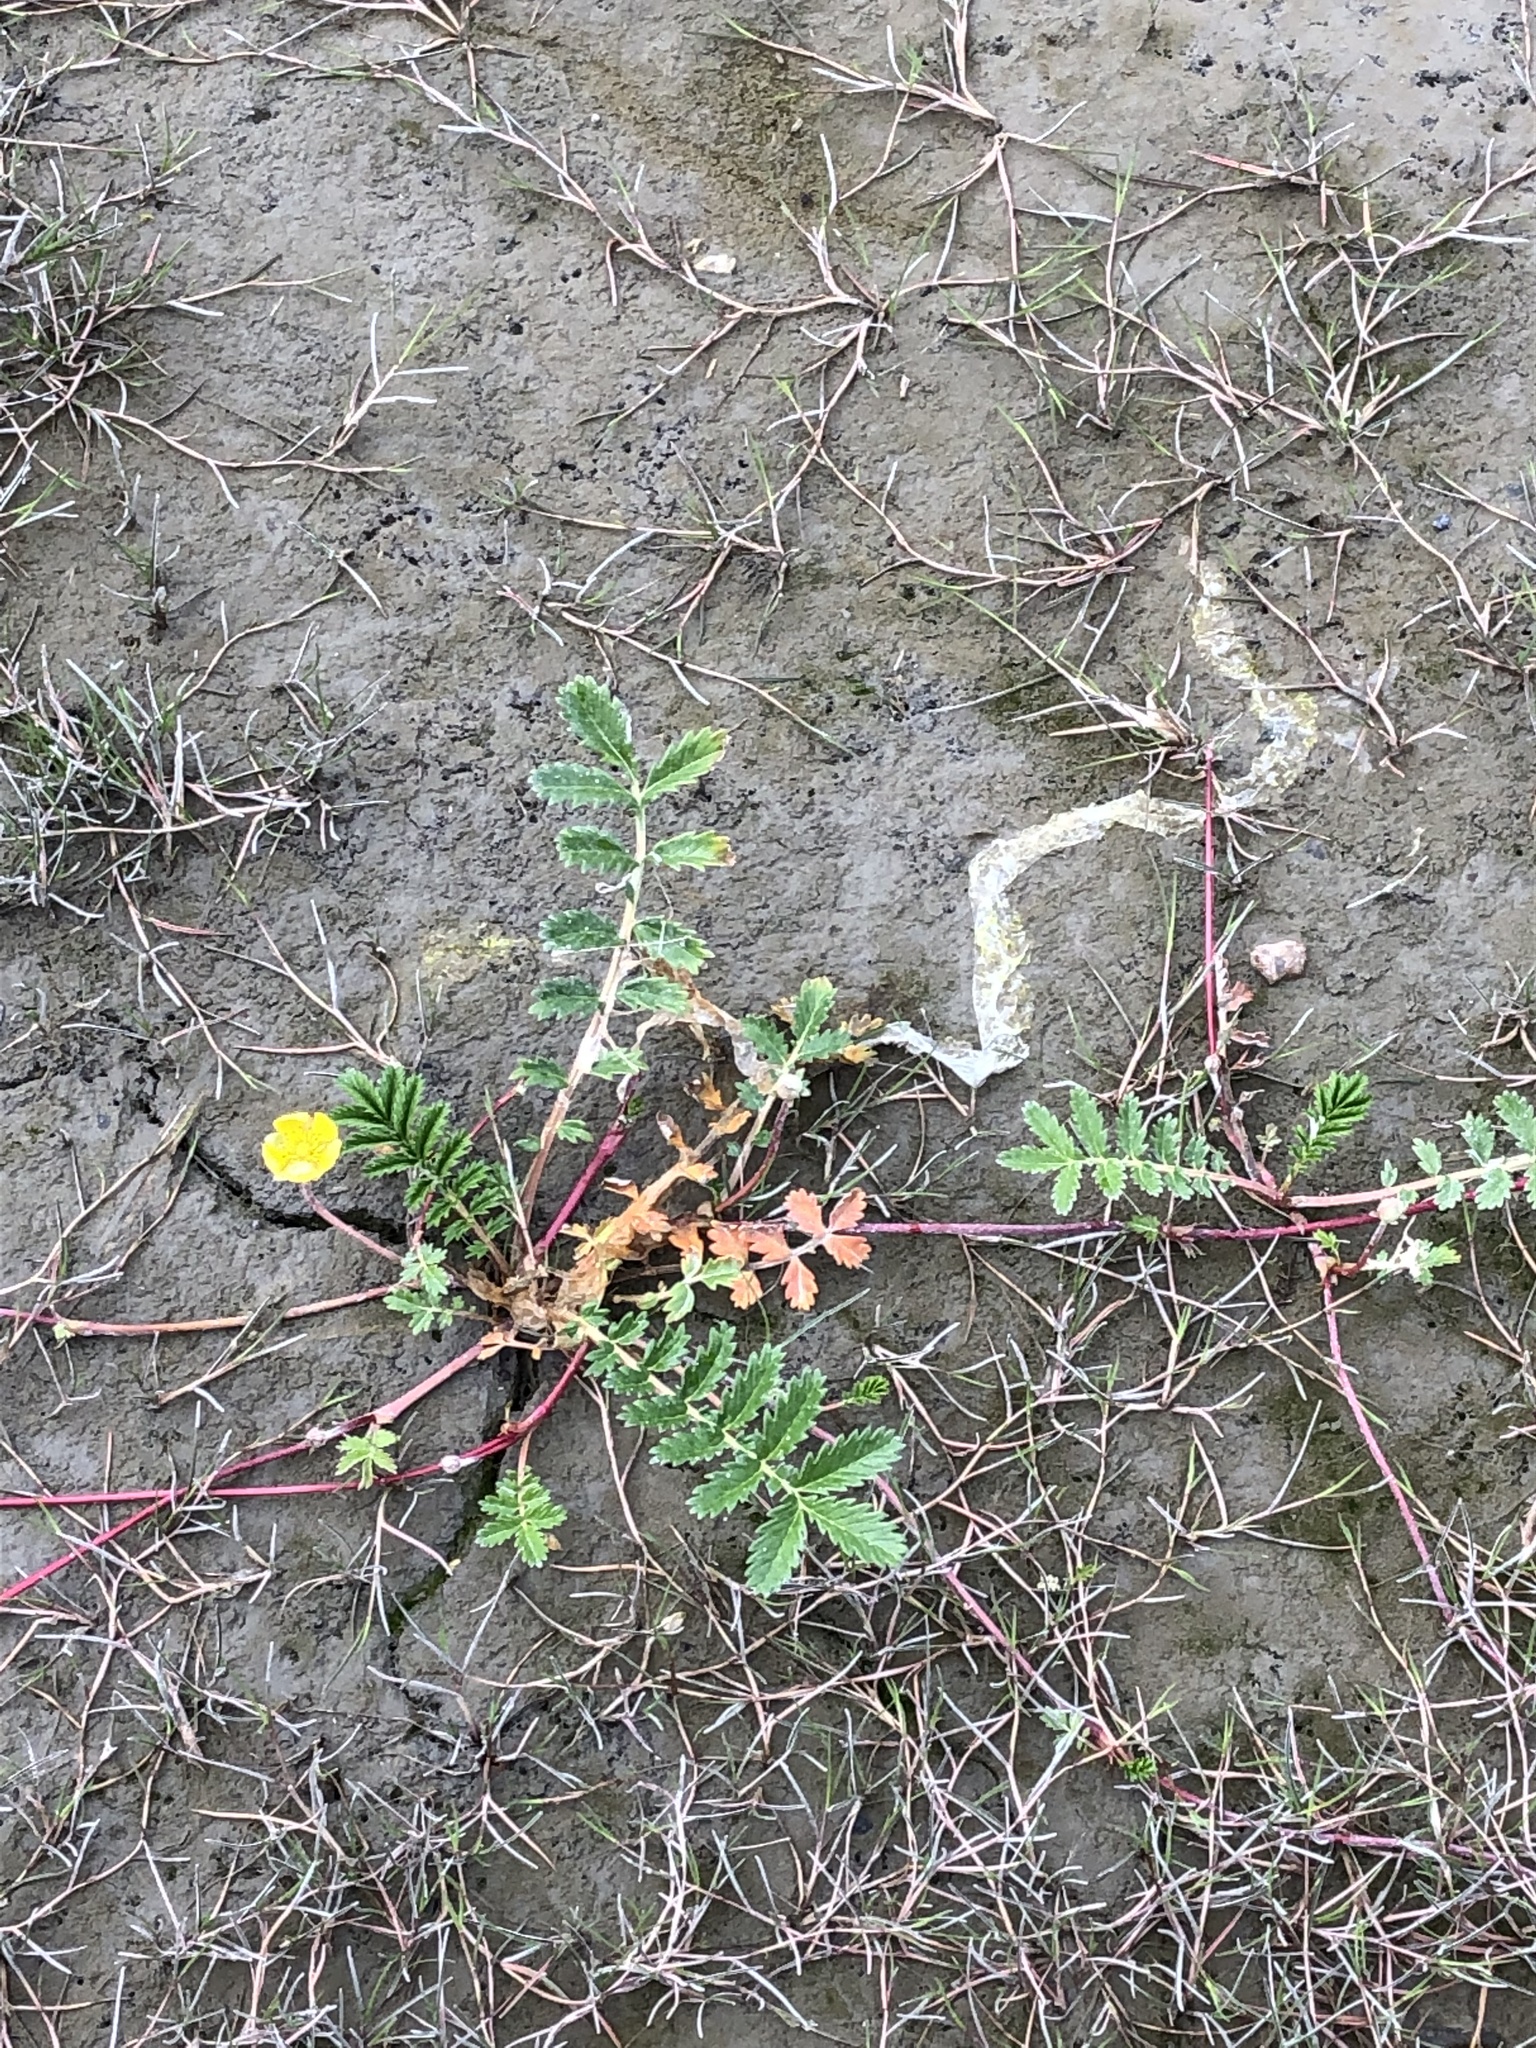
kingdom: Plantae
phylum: Tracheophyta
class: Magnoliopsida
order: Rosales
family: Rosaceae
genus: Argentina
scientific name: Argentina anserina
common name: Common silverweed
